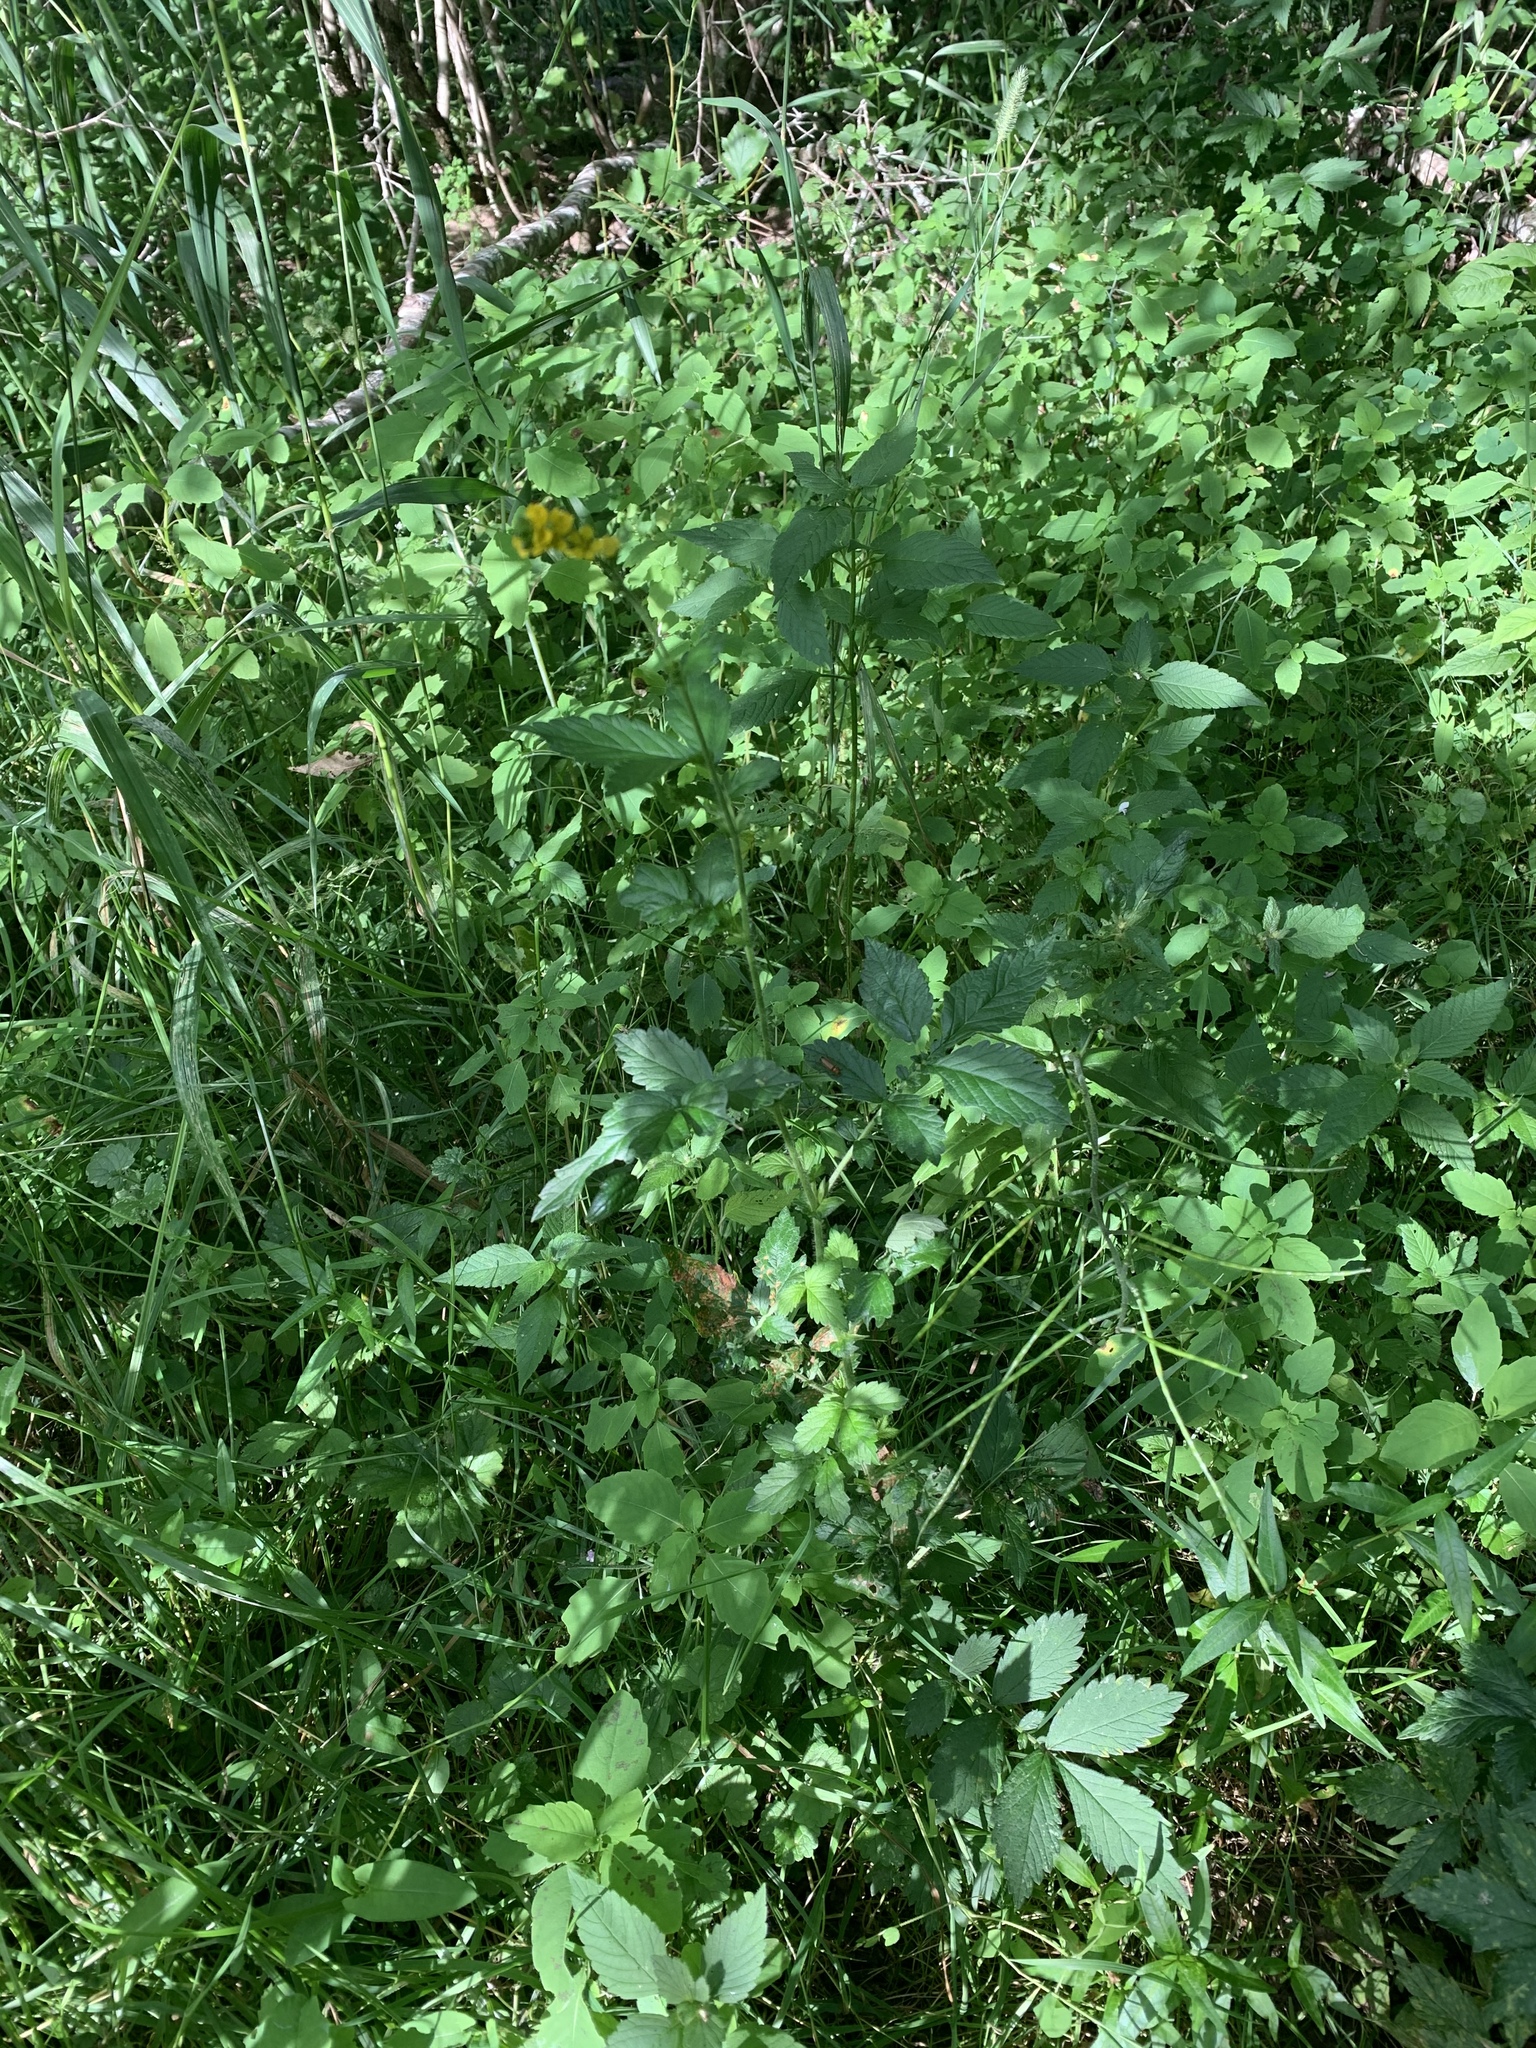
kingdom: Plantae
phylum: Tracheophyta
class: Magnoliopsida
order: Rosales
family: Rosaceae
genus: Agrimonia
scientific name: Agrimonia striata
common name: Britton's agrimony
